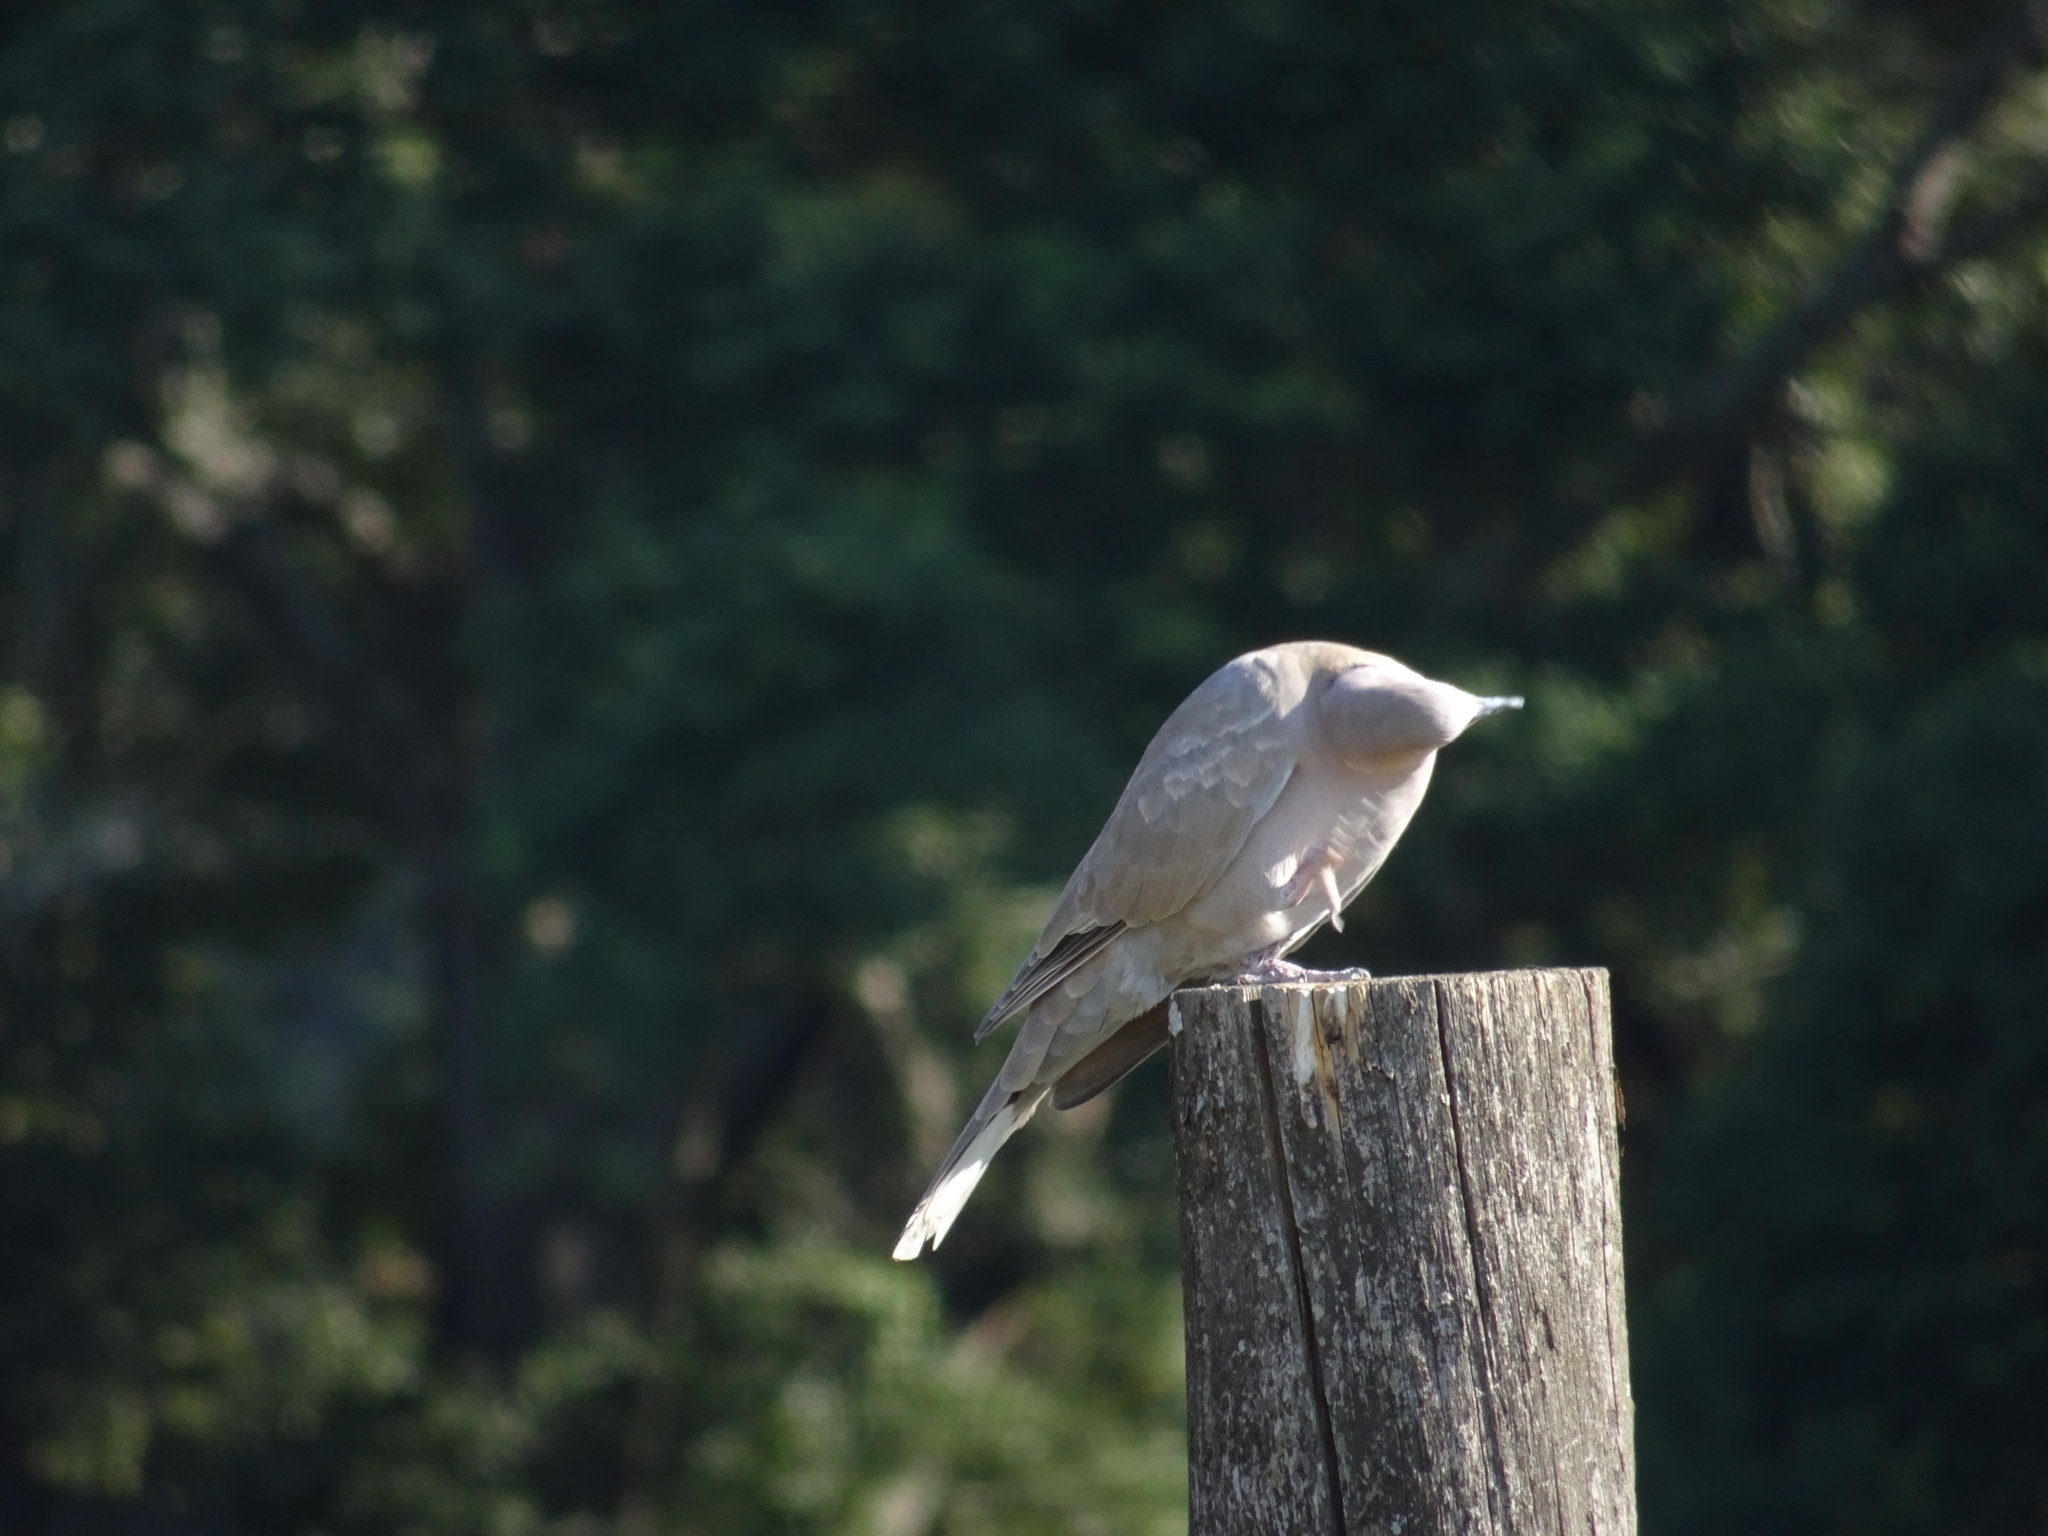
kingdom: Animalia
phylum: Chordata
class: Aves
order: Columbiformes
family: Columbidae
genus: Streptopelia
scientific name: Streptopelia decaocto
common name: Eurasian collared dove
